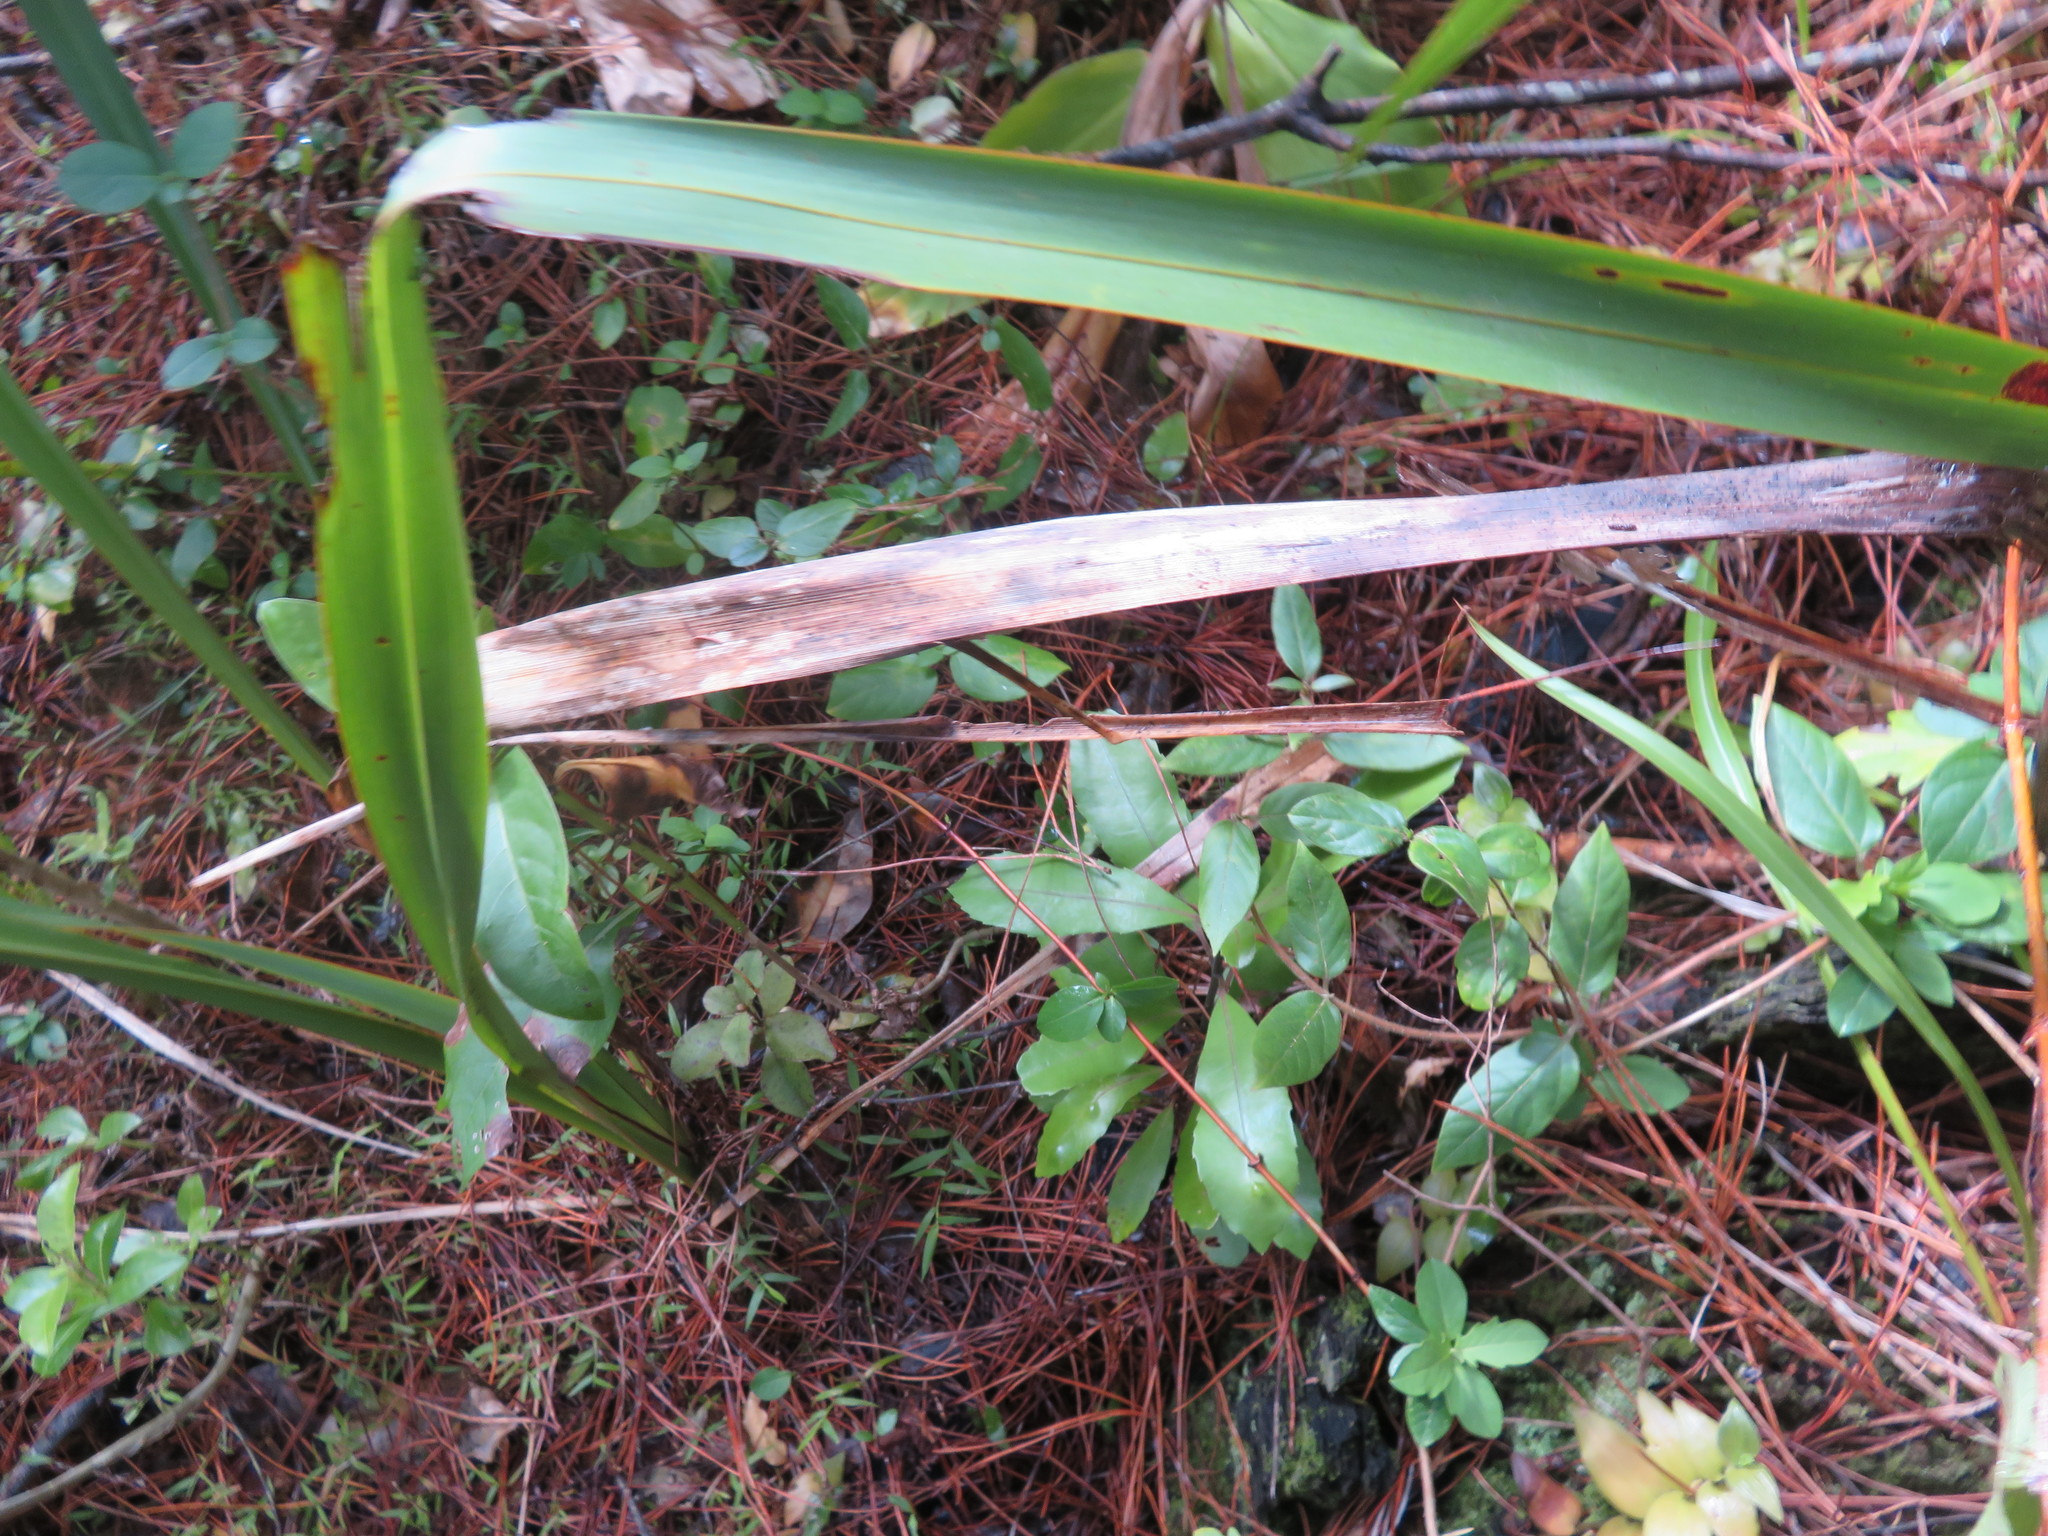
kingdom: Plantae
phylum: Tracheophyta
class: Magnoliopsida
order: Laurales
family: Monimiaceae
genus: Hedycarya
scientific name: Hedycarya arborea
